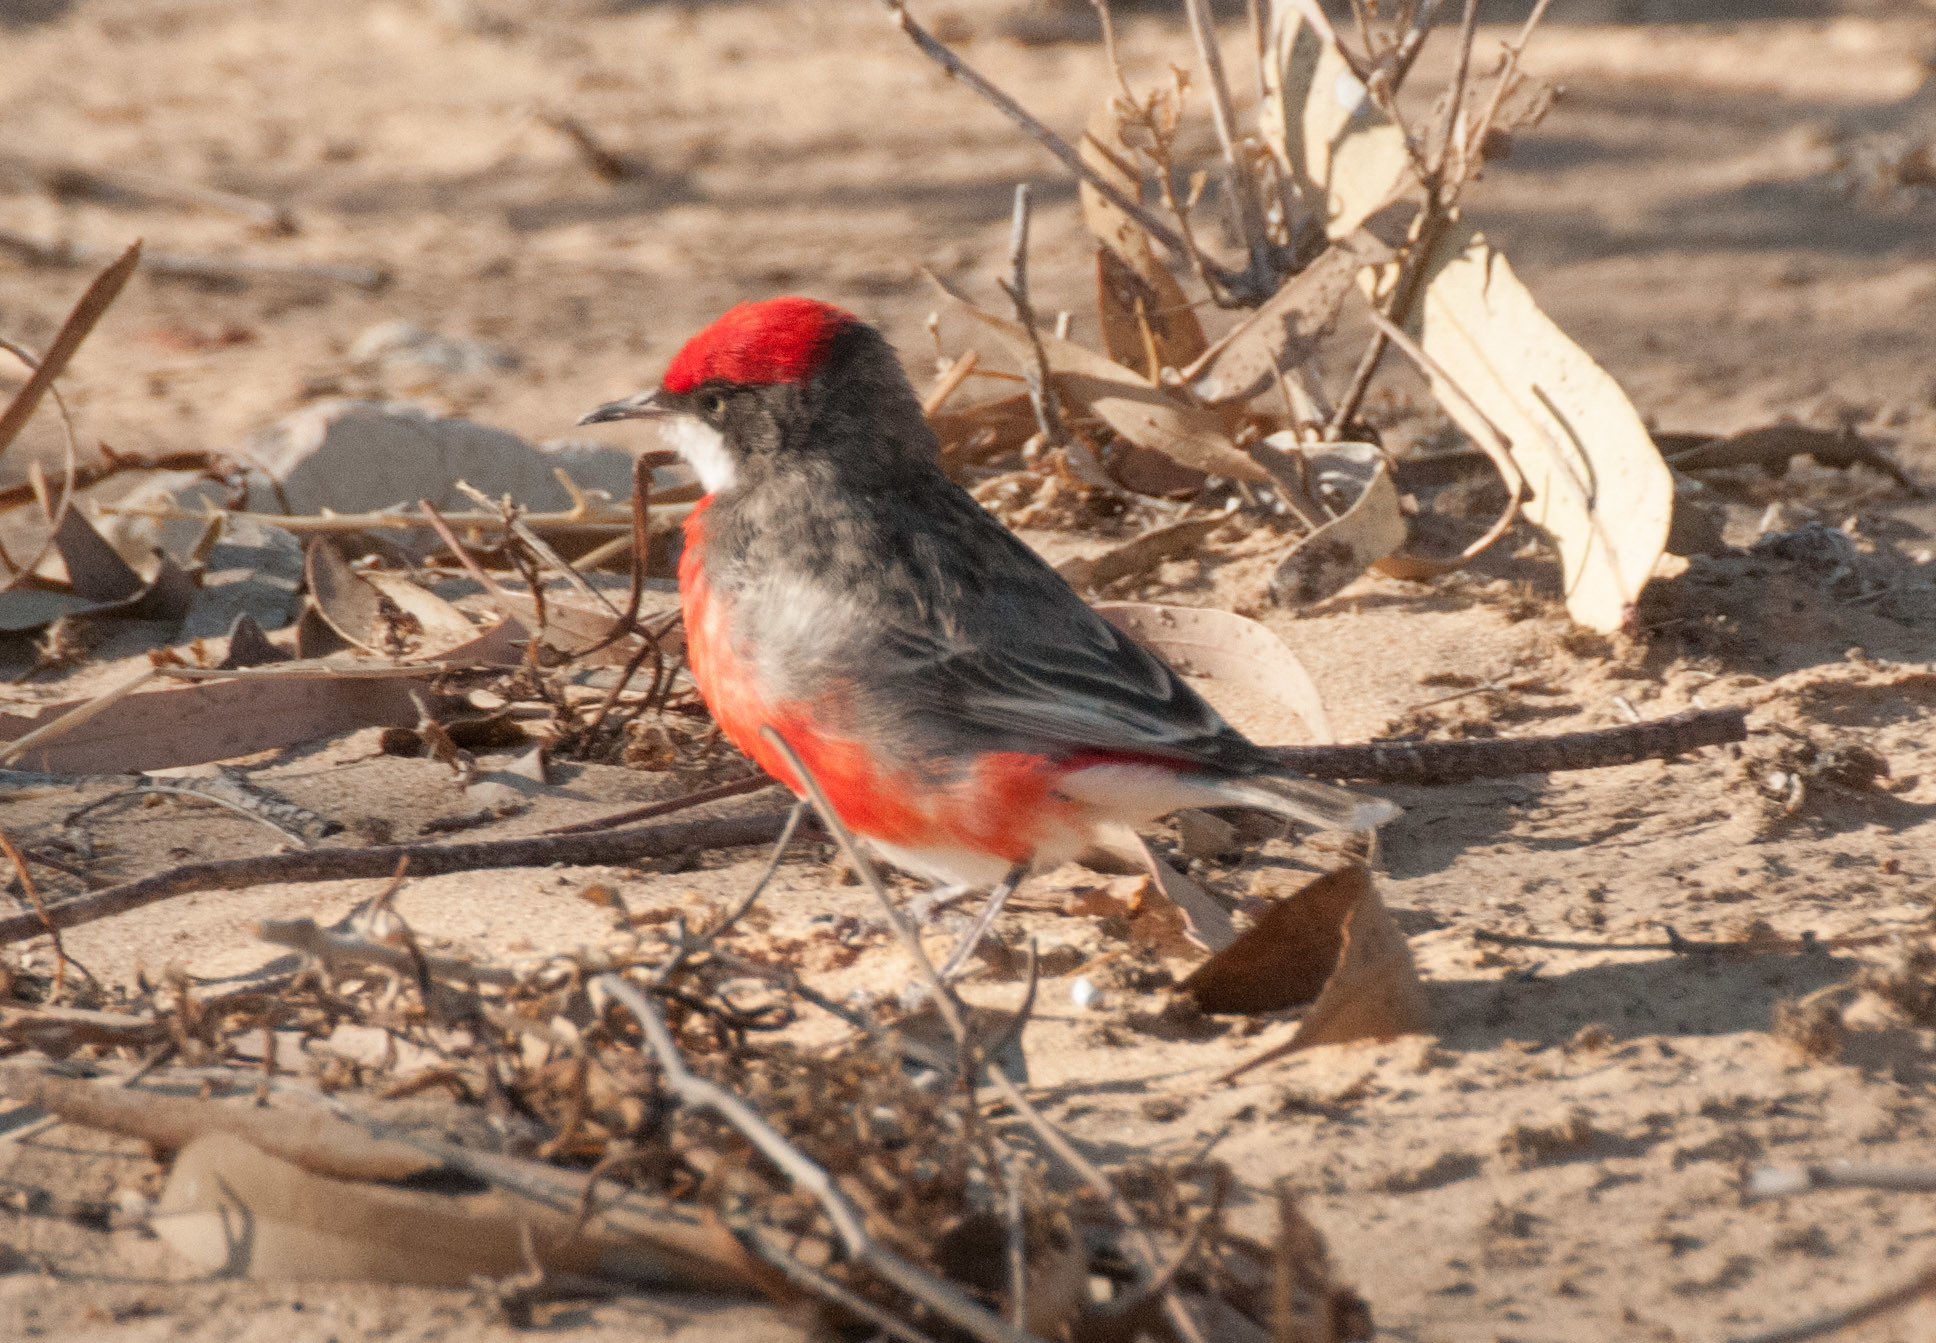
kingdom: Animalia
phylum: Chordata
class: Aves
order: Passeriformes
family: Meliphagidae
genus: Epthianura
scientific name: Epthianura tricolor
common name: Crimson chat
